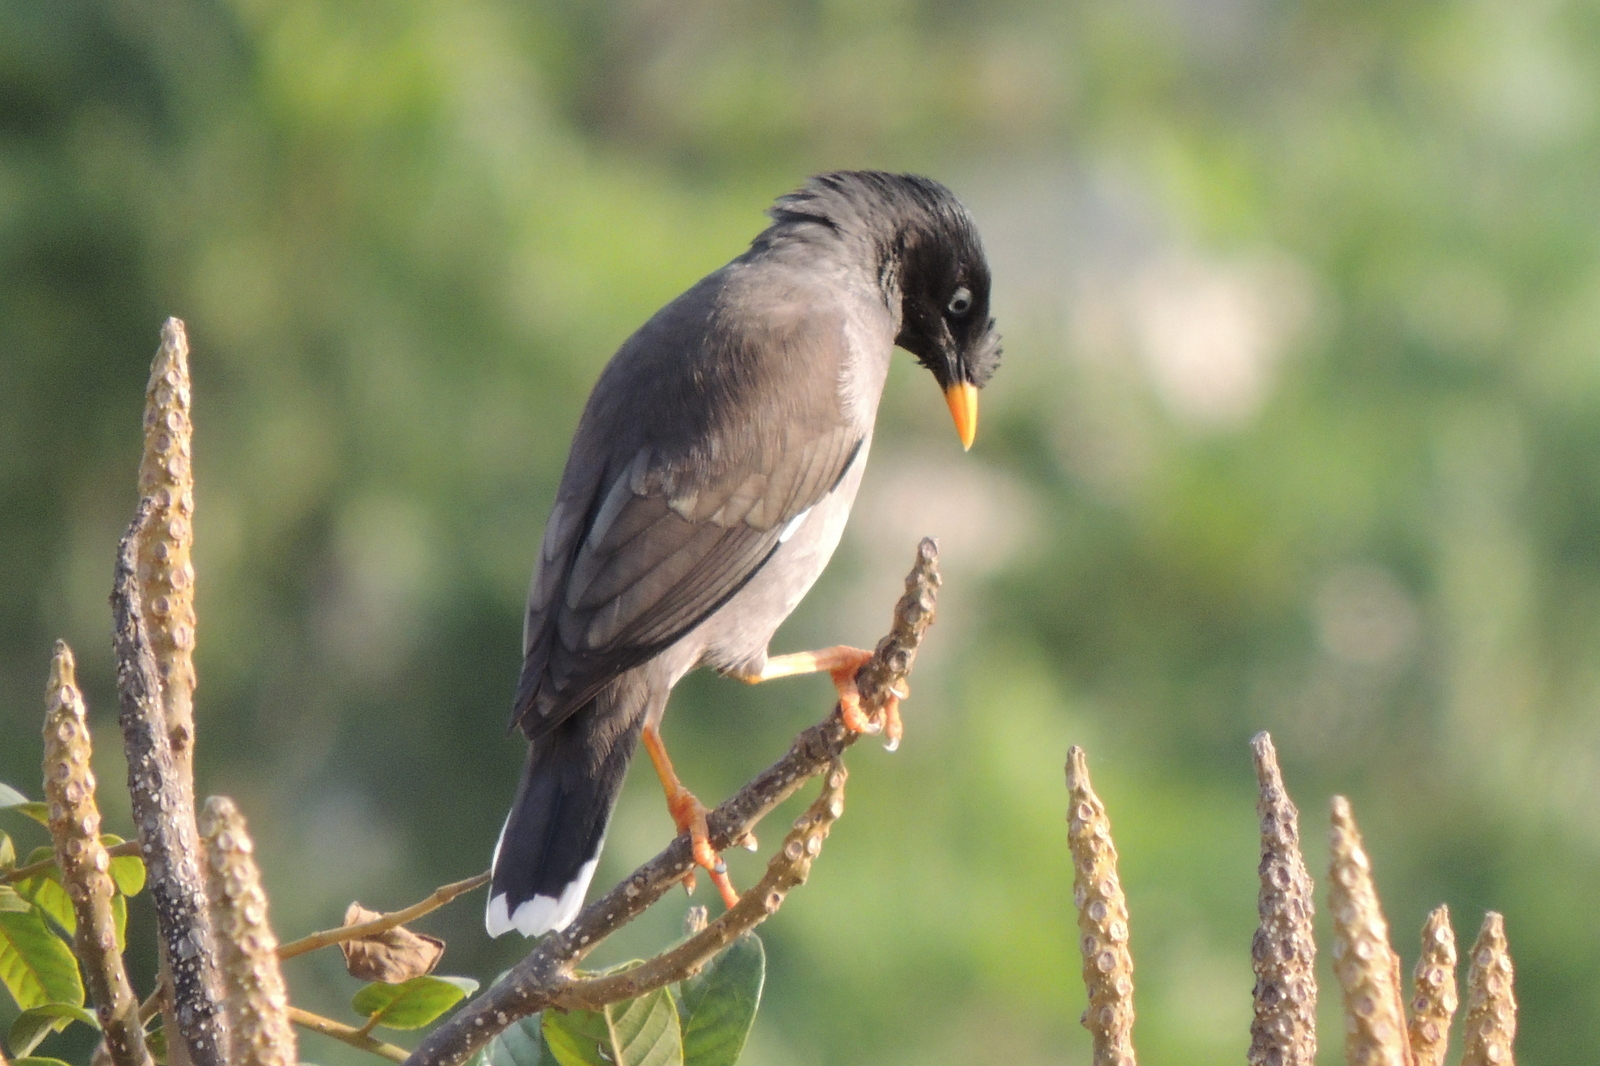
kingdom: Animalia
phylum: Chordata
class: Aves
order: Passeriformes
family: Sturnidae
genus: Acridotheres
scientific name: Acridotheres fuscus
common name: Jungle myna
